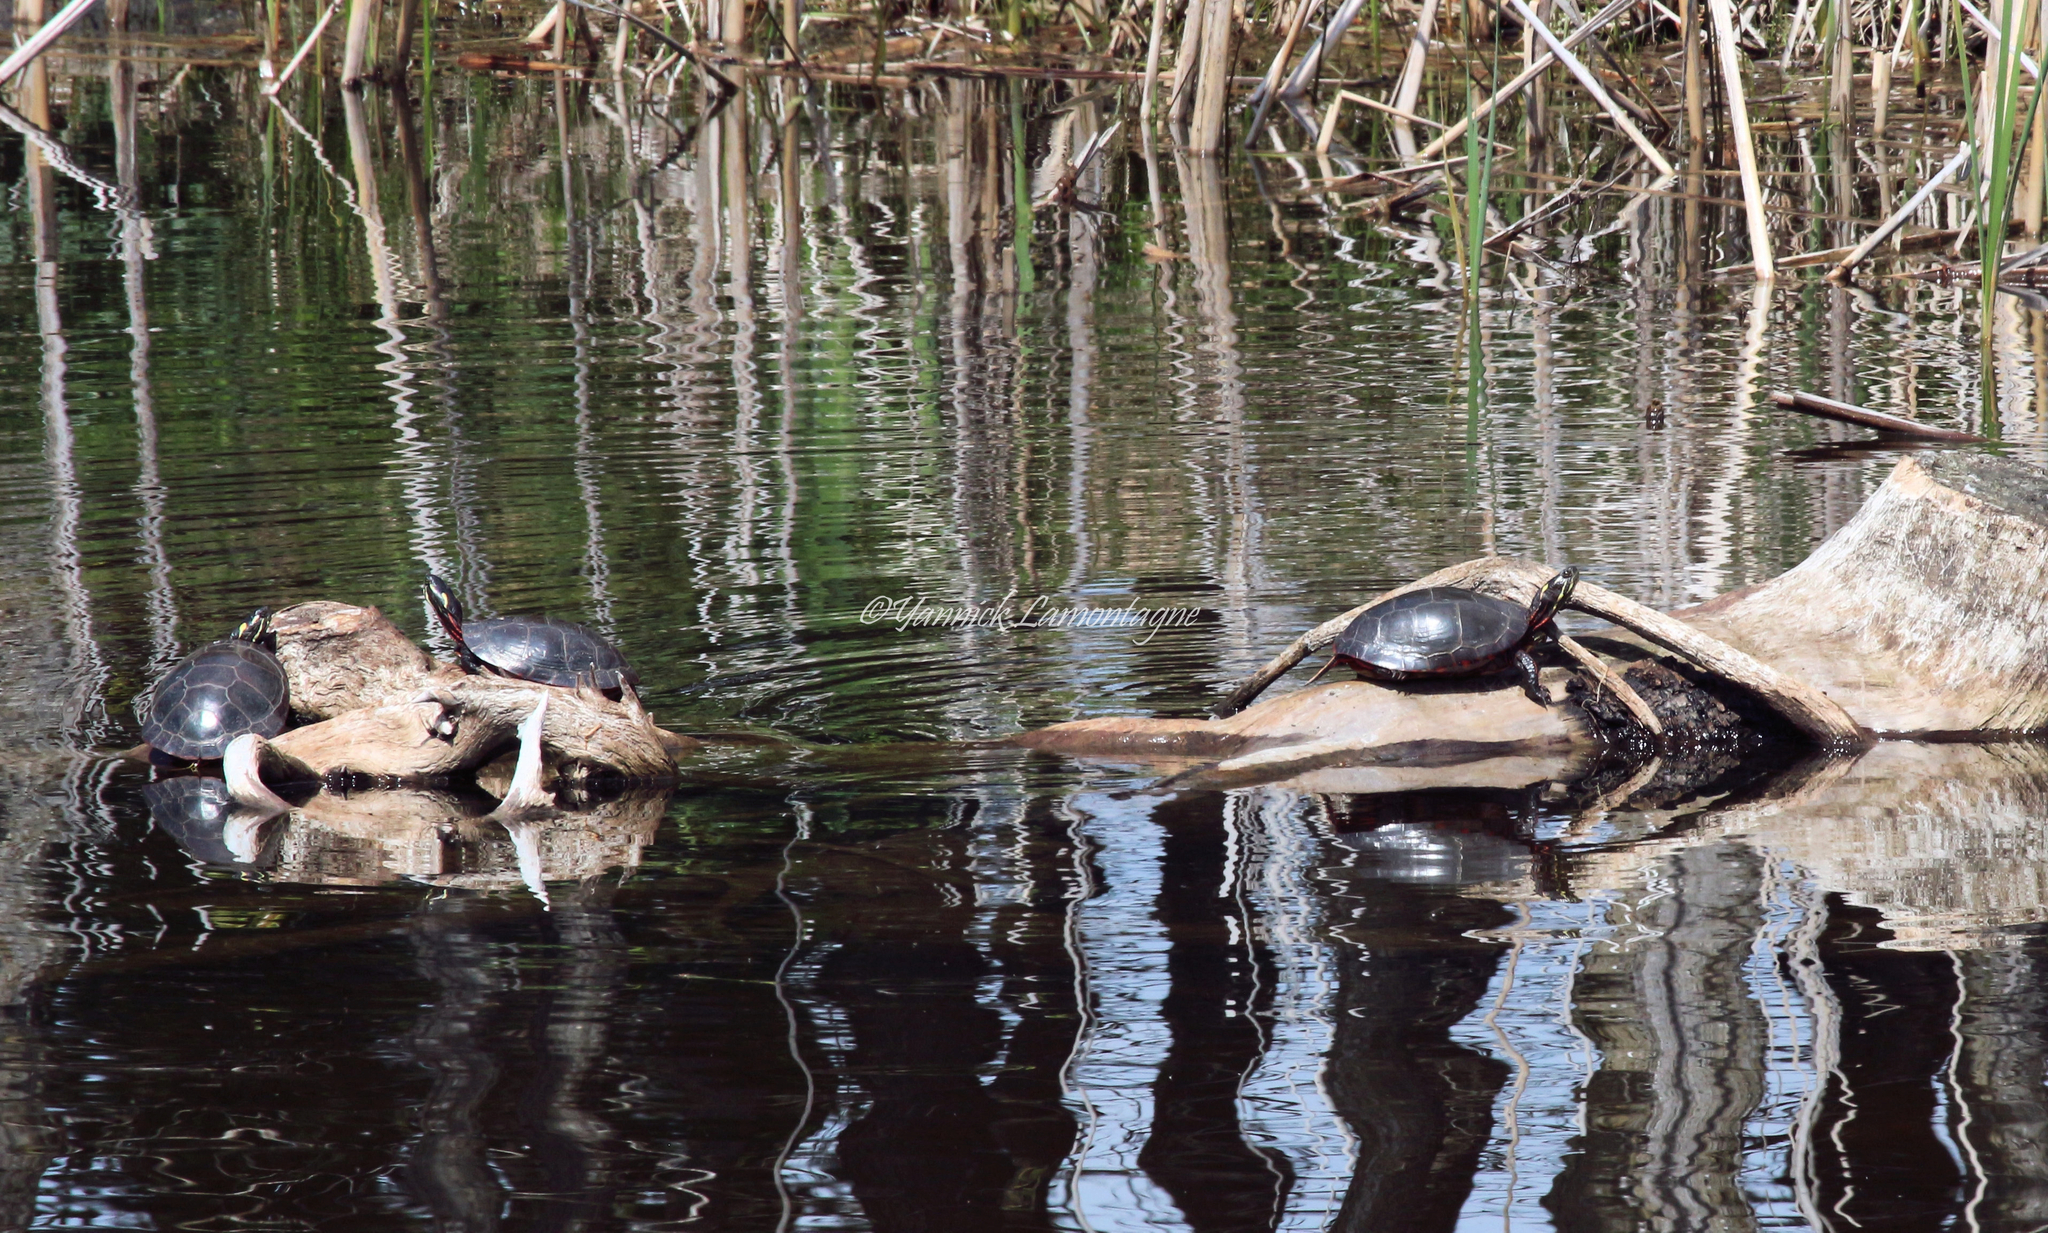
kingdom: Animalia
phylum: Chordata
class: Testudines
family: Emydidae
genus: Chrysemys
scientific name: Chrysemys picta
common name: Painted turtle
